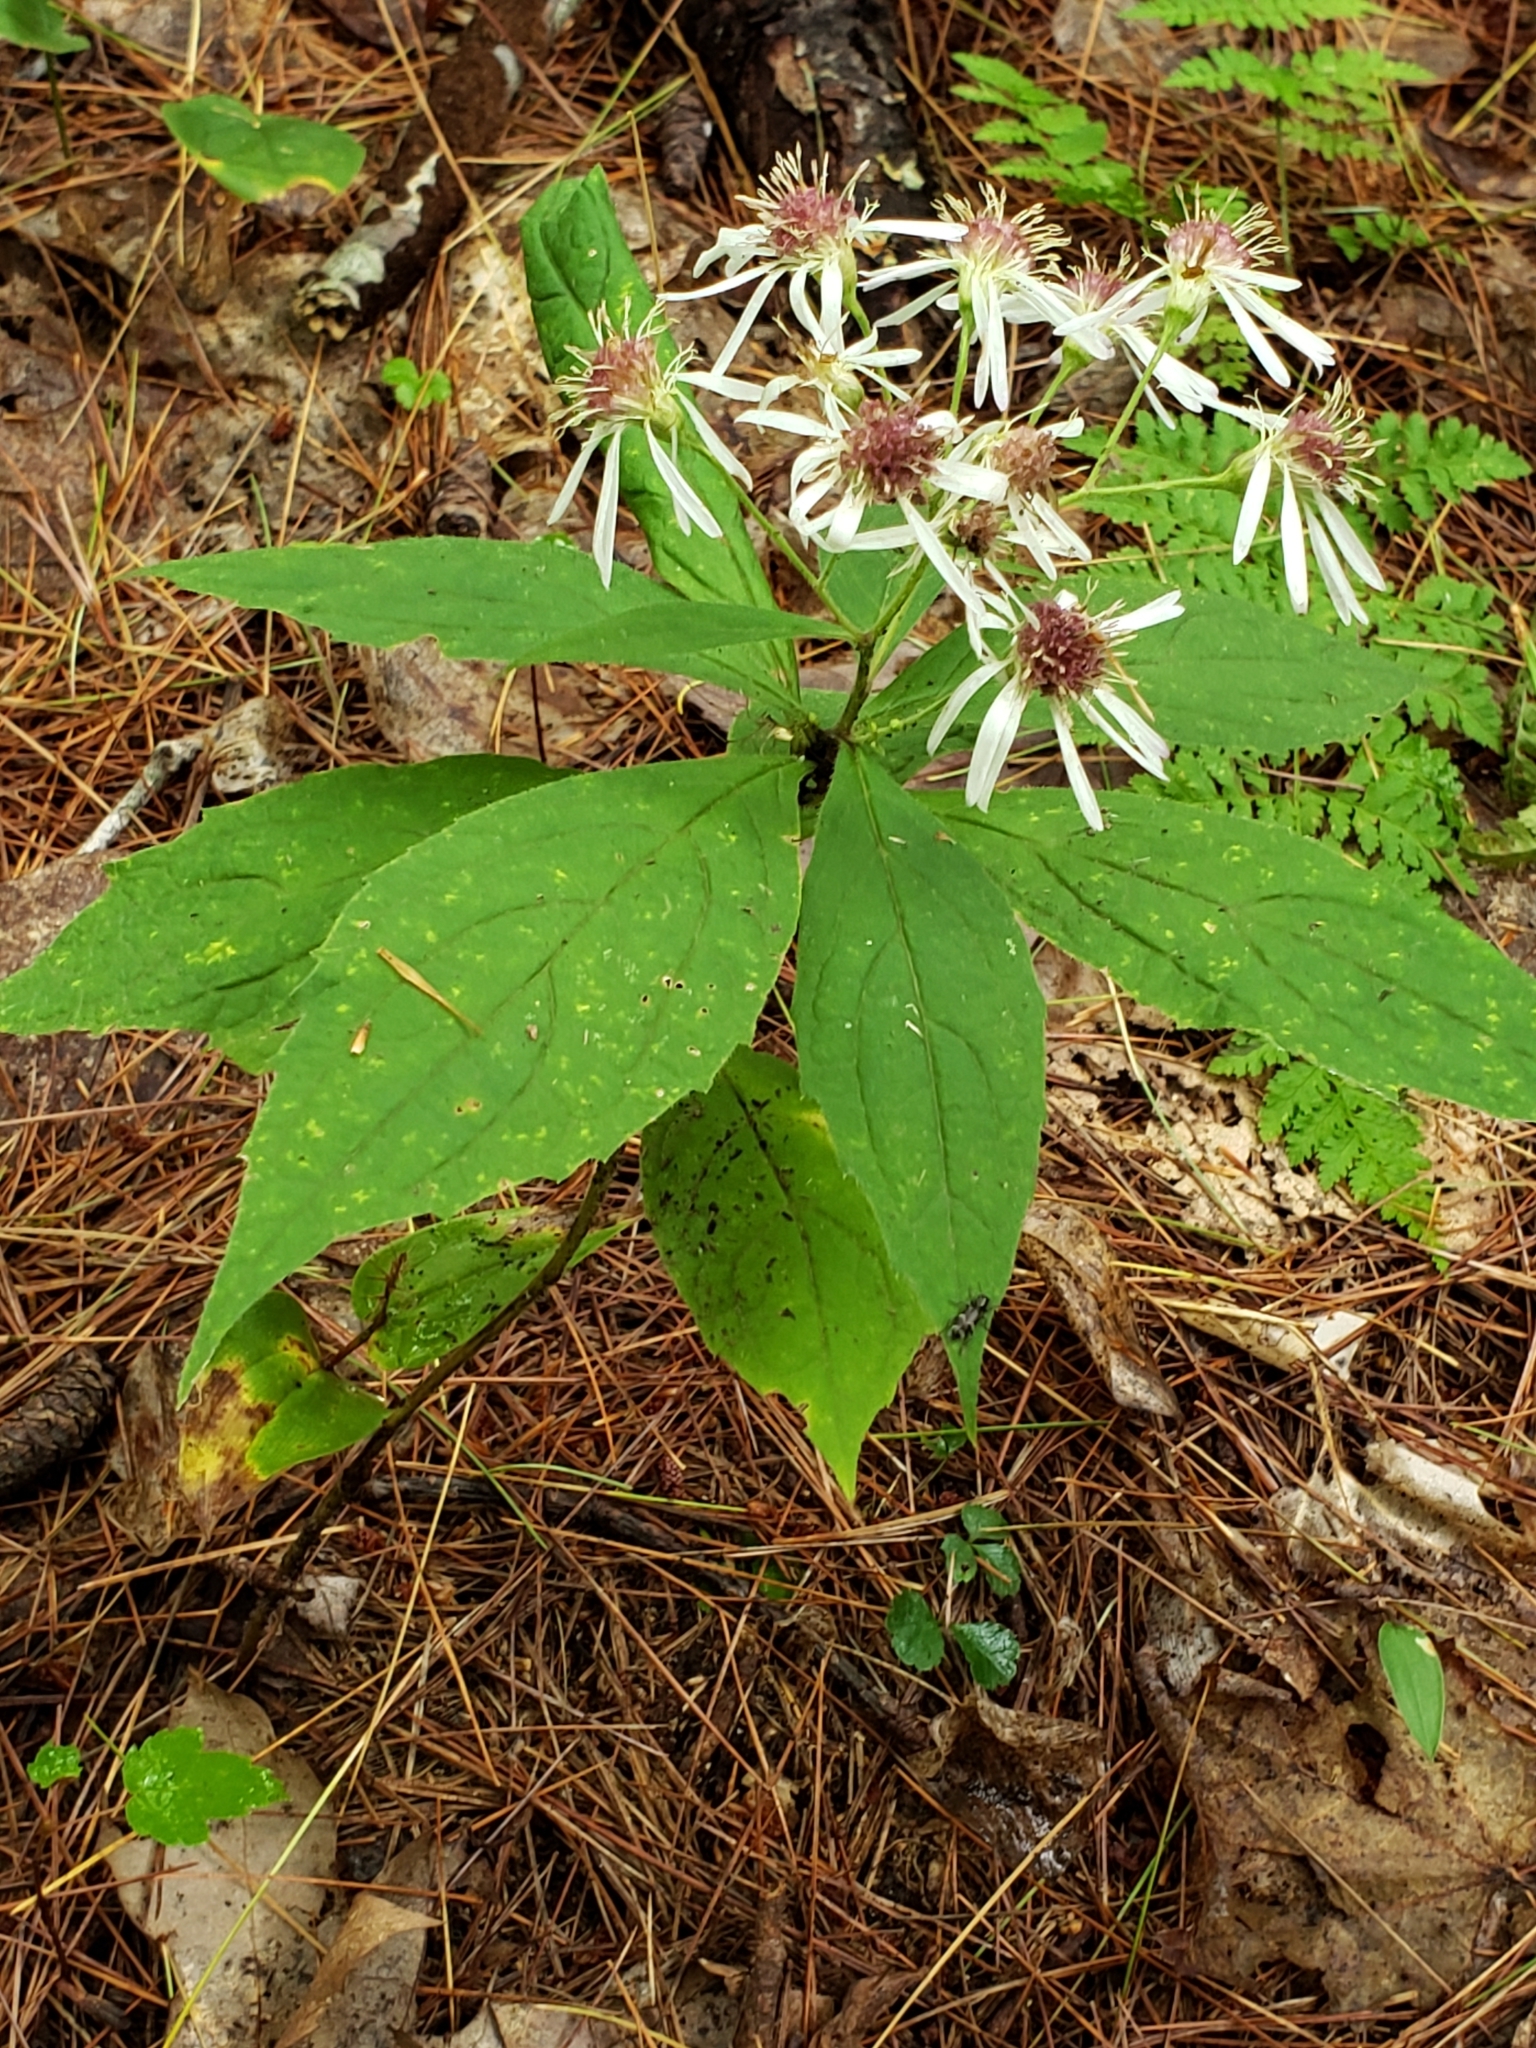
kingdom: Plantae
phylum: Tracheophyta
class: Magnoliopsida
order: Asterales
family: Asteraceae
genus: Oclemena
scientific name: Oclemena acuminata
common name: Mountain aster
